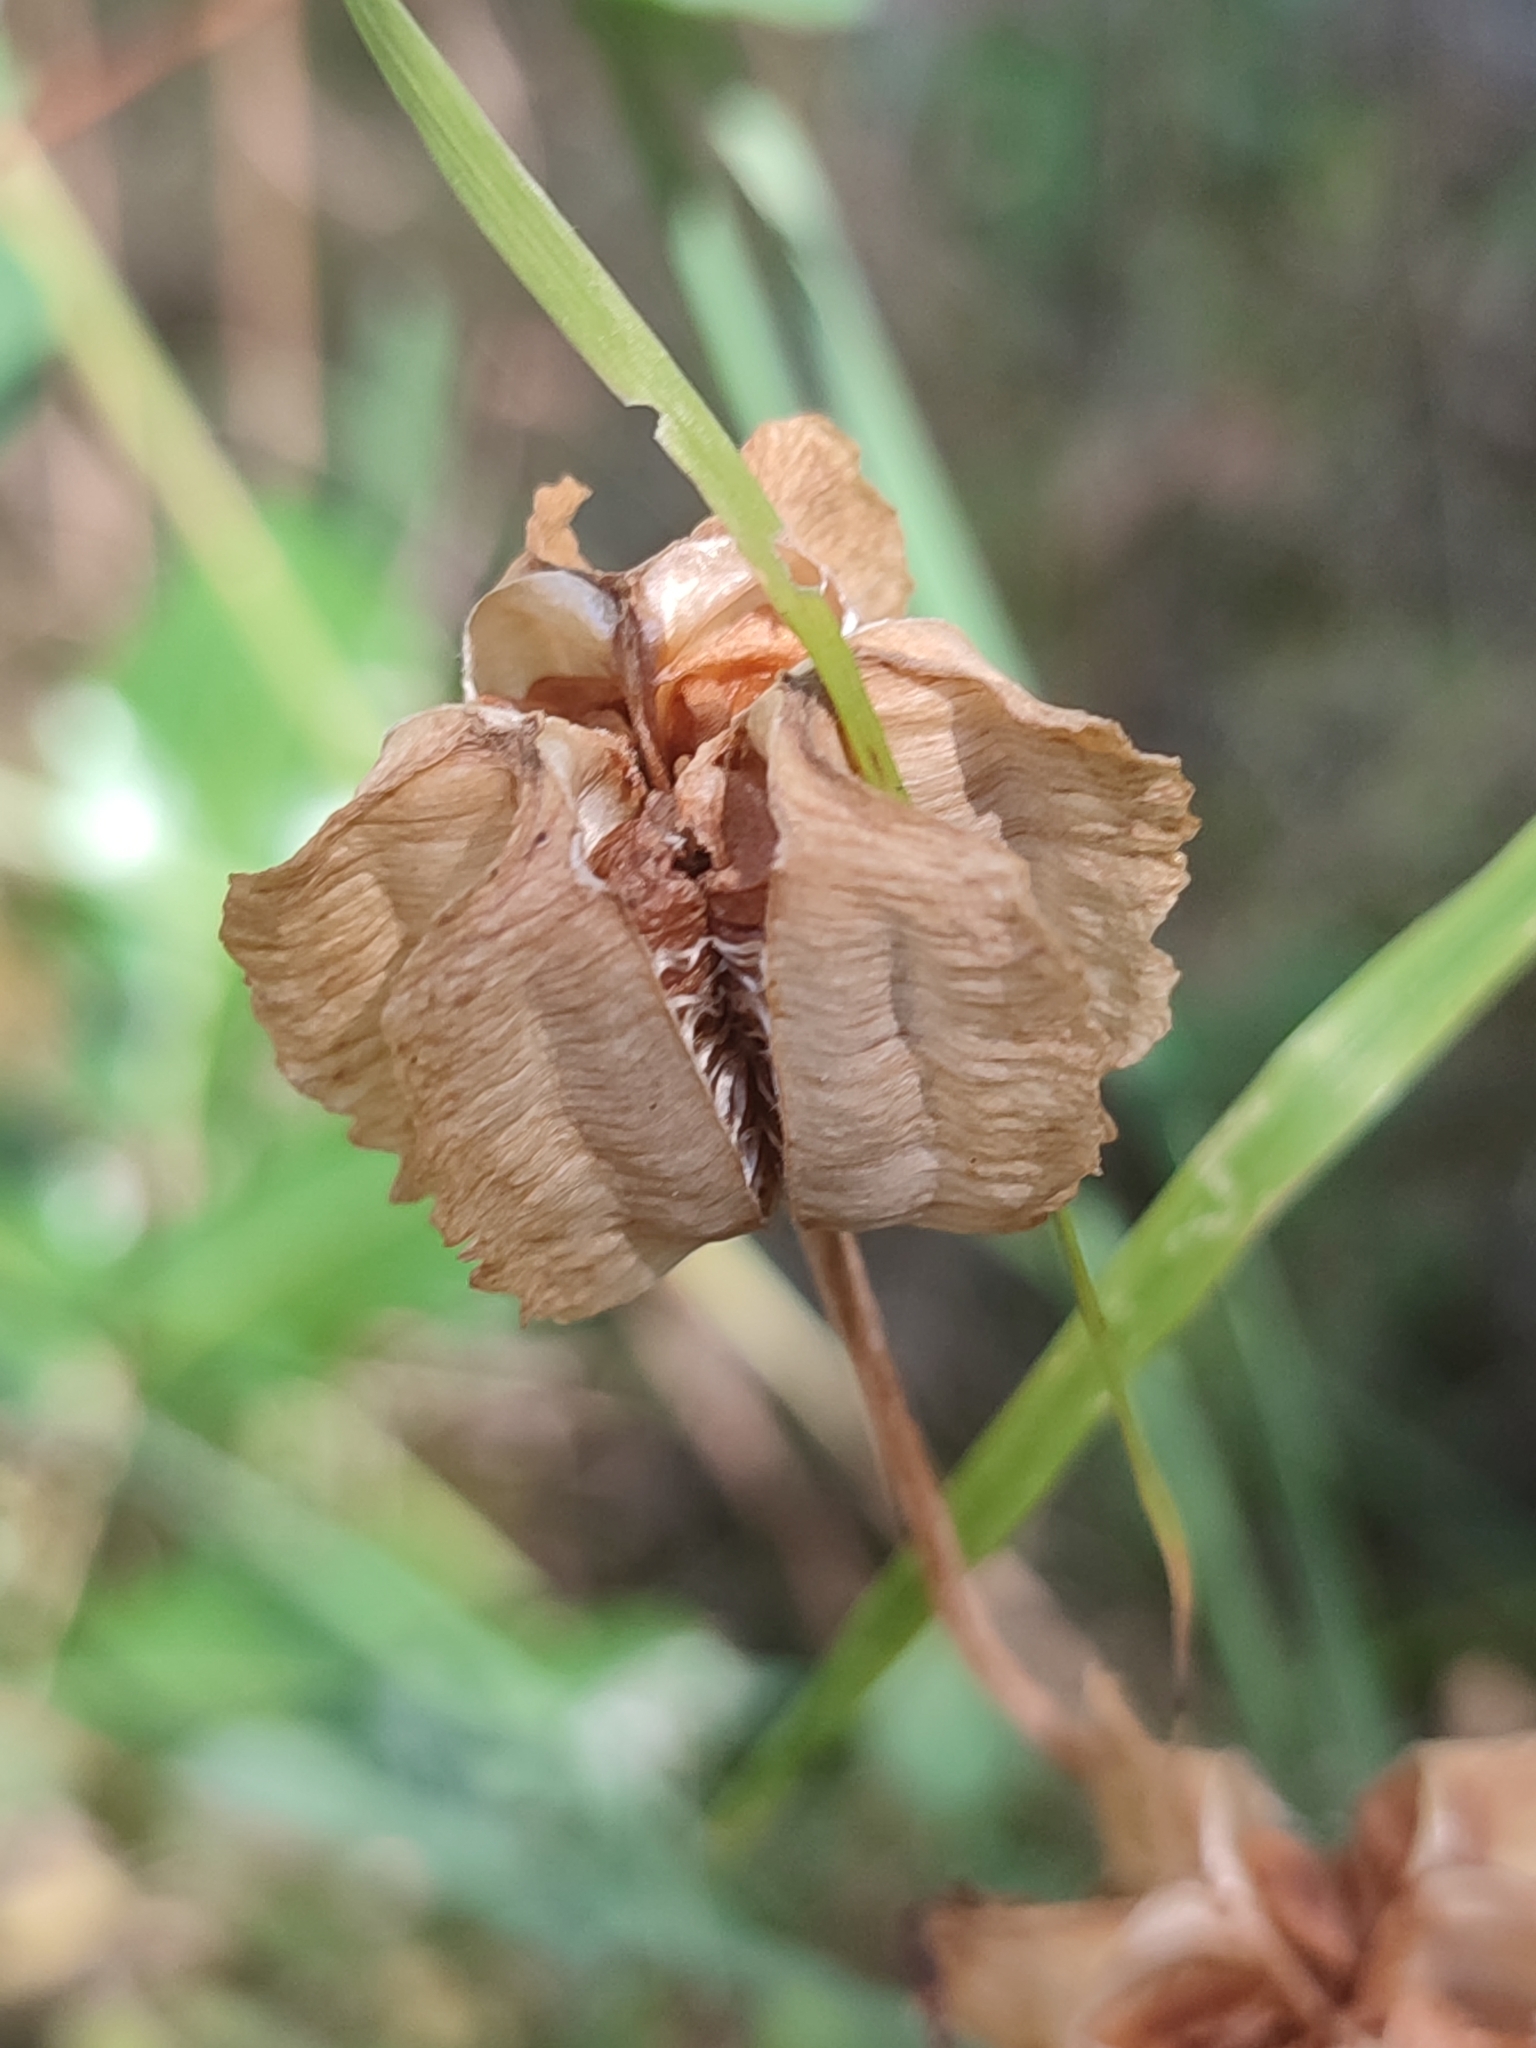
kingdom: Plantae
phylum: Tracheophyta
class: Liliopsida
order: Liliales
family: Liliaceae
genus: Fritillaria
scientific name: Fritillaria affinis
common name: Ojai fritillary
